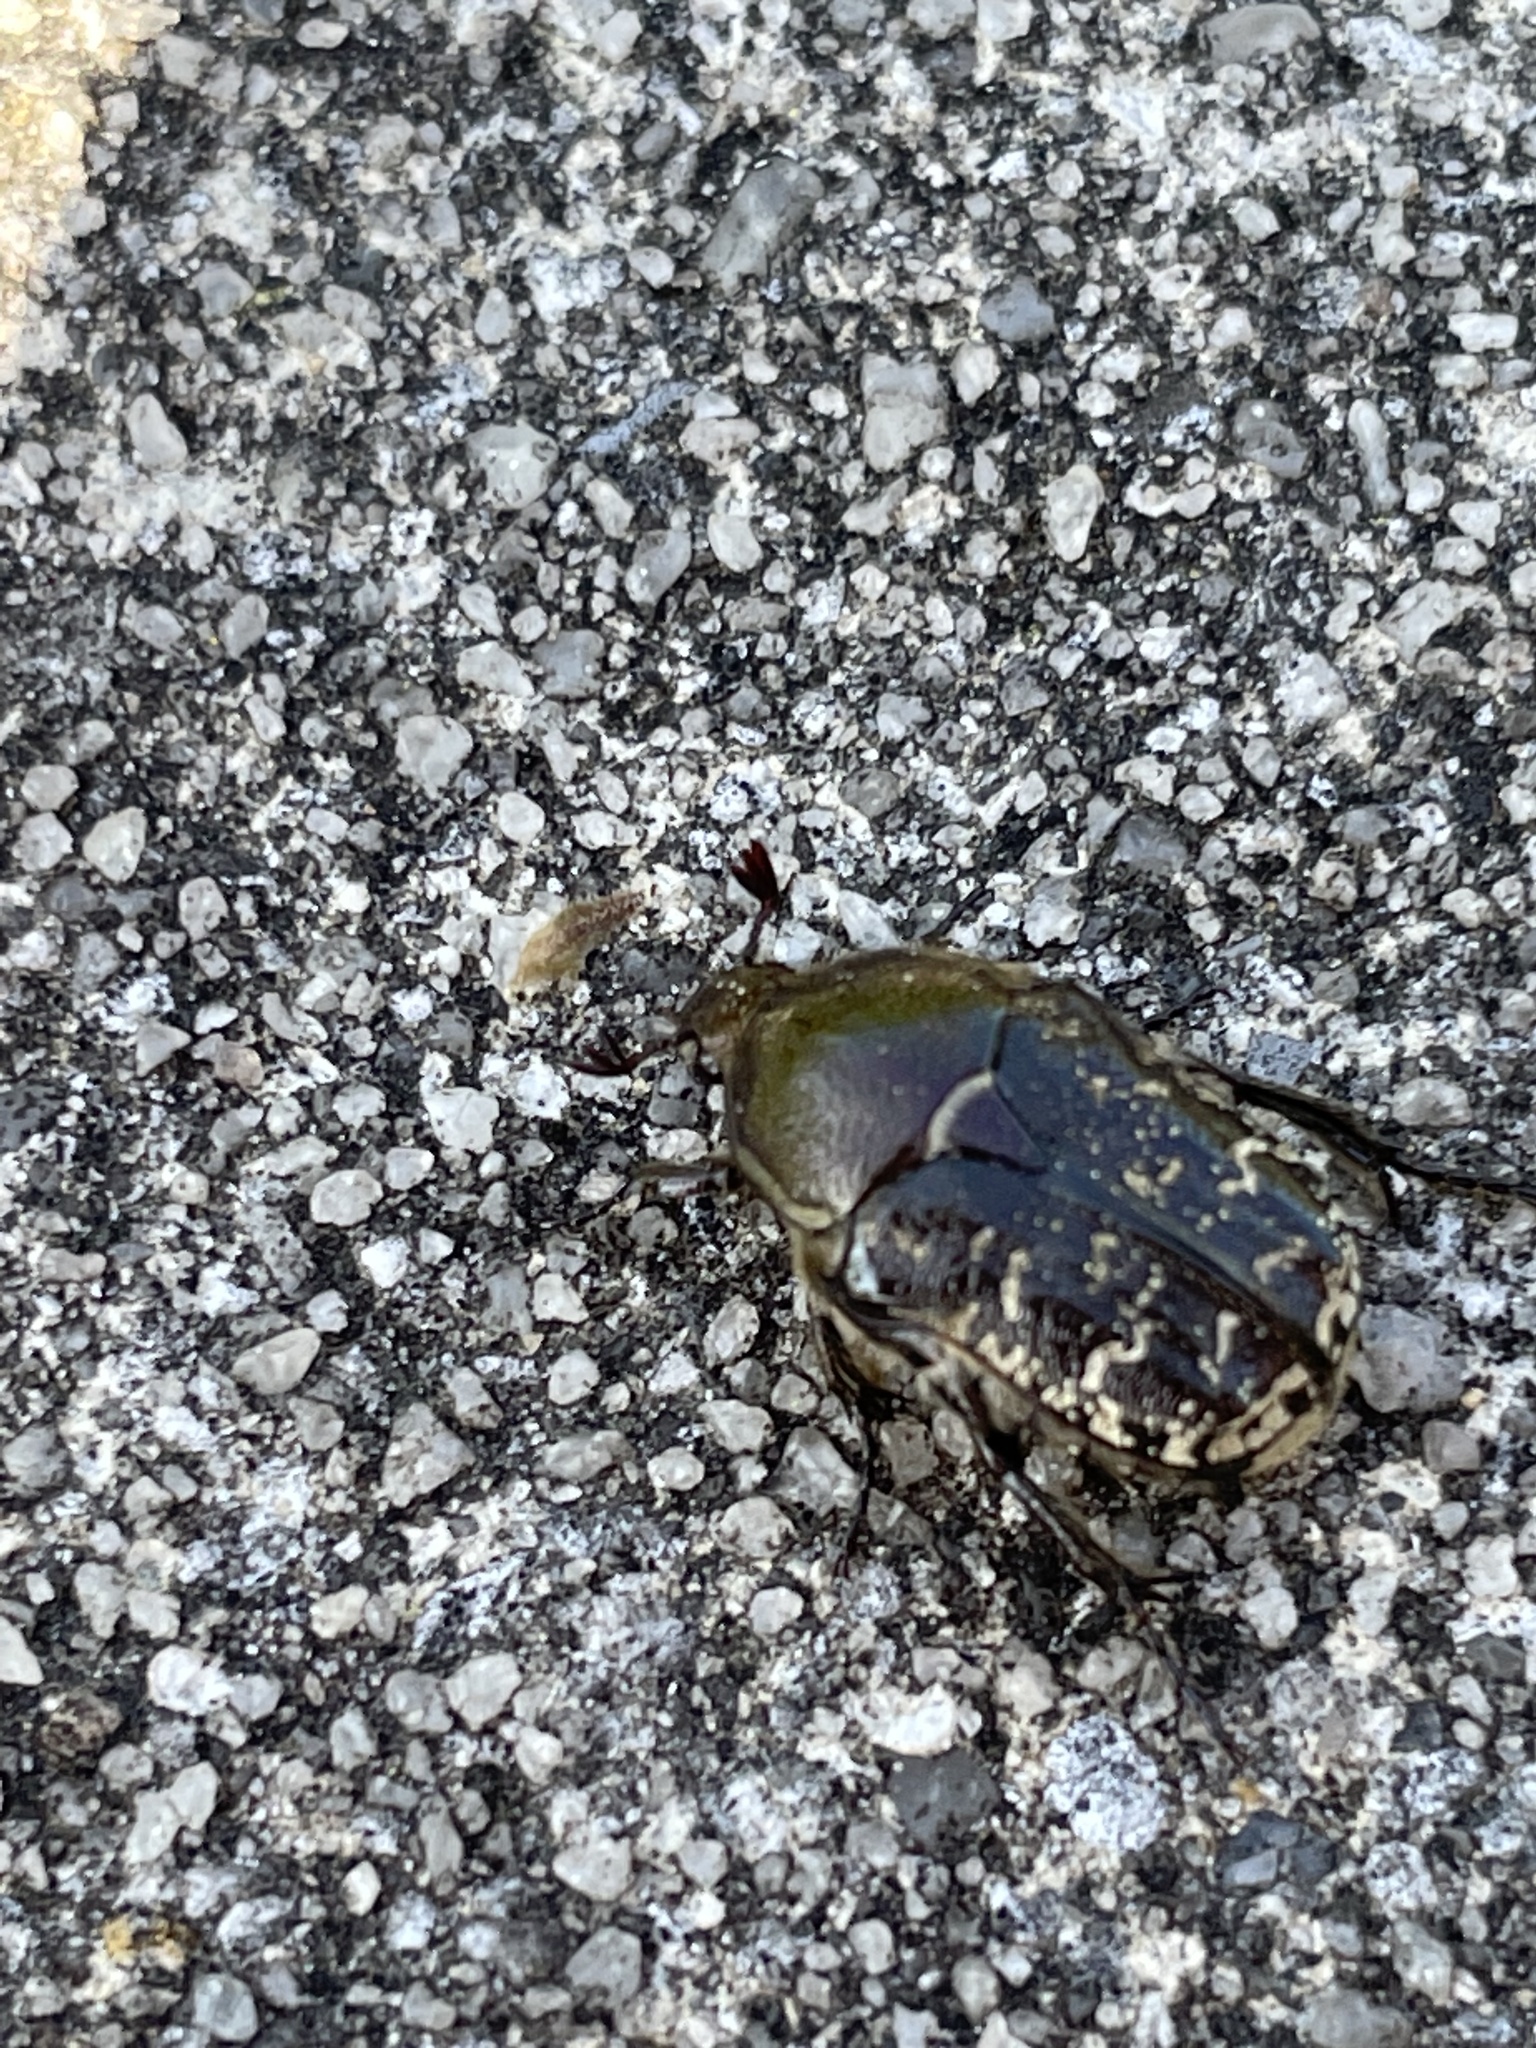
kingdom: Animalia
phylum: Arthropoda
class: Insecta
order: Coleoptera
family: Scarabaeidae
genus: Euphoria
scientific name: Euphoria sepulcralis
